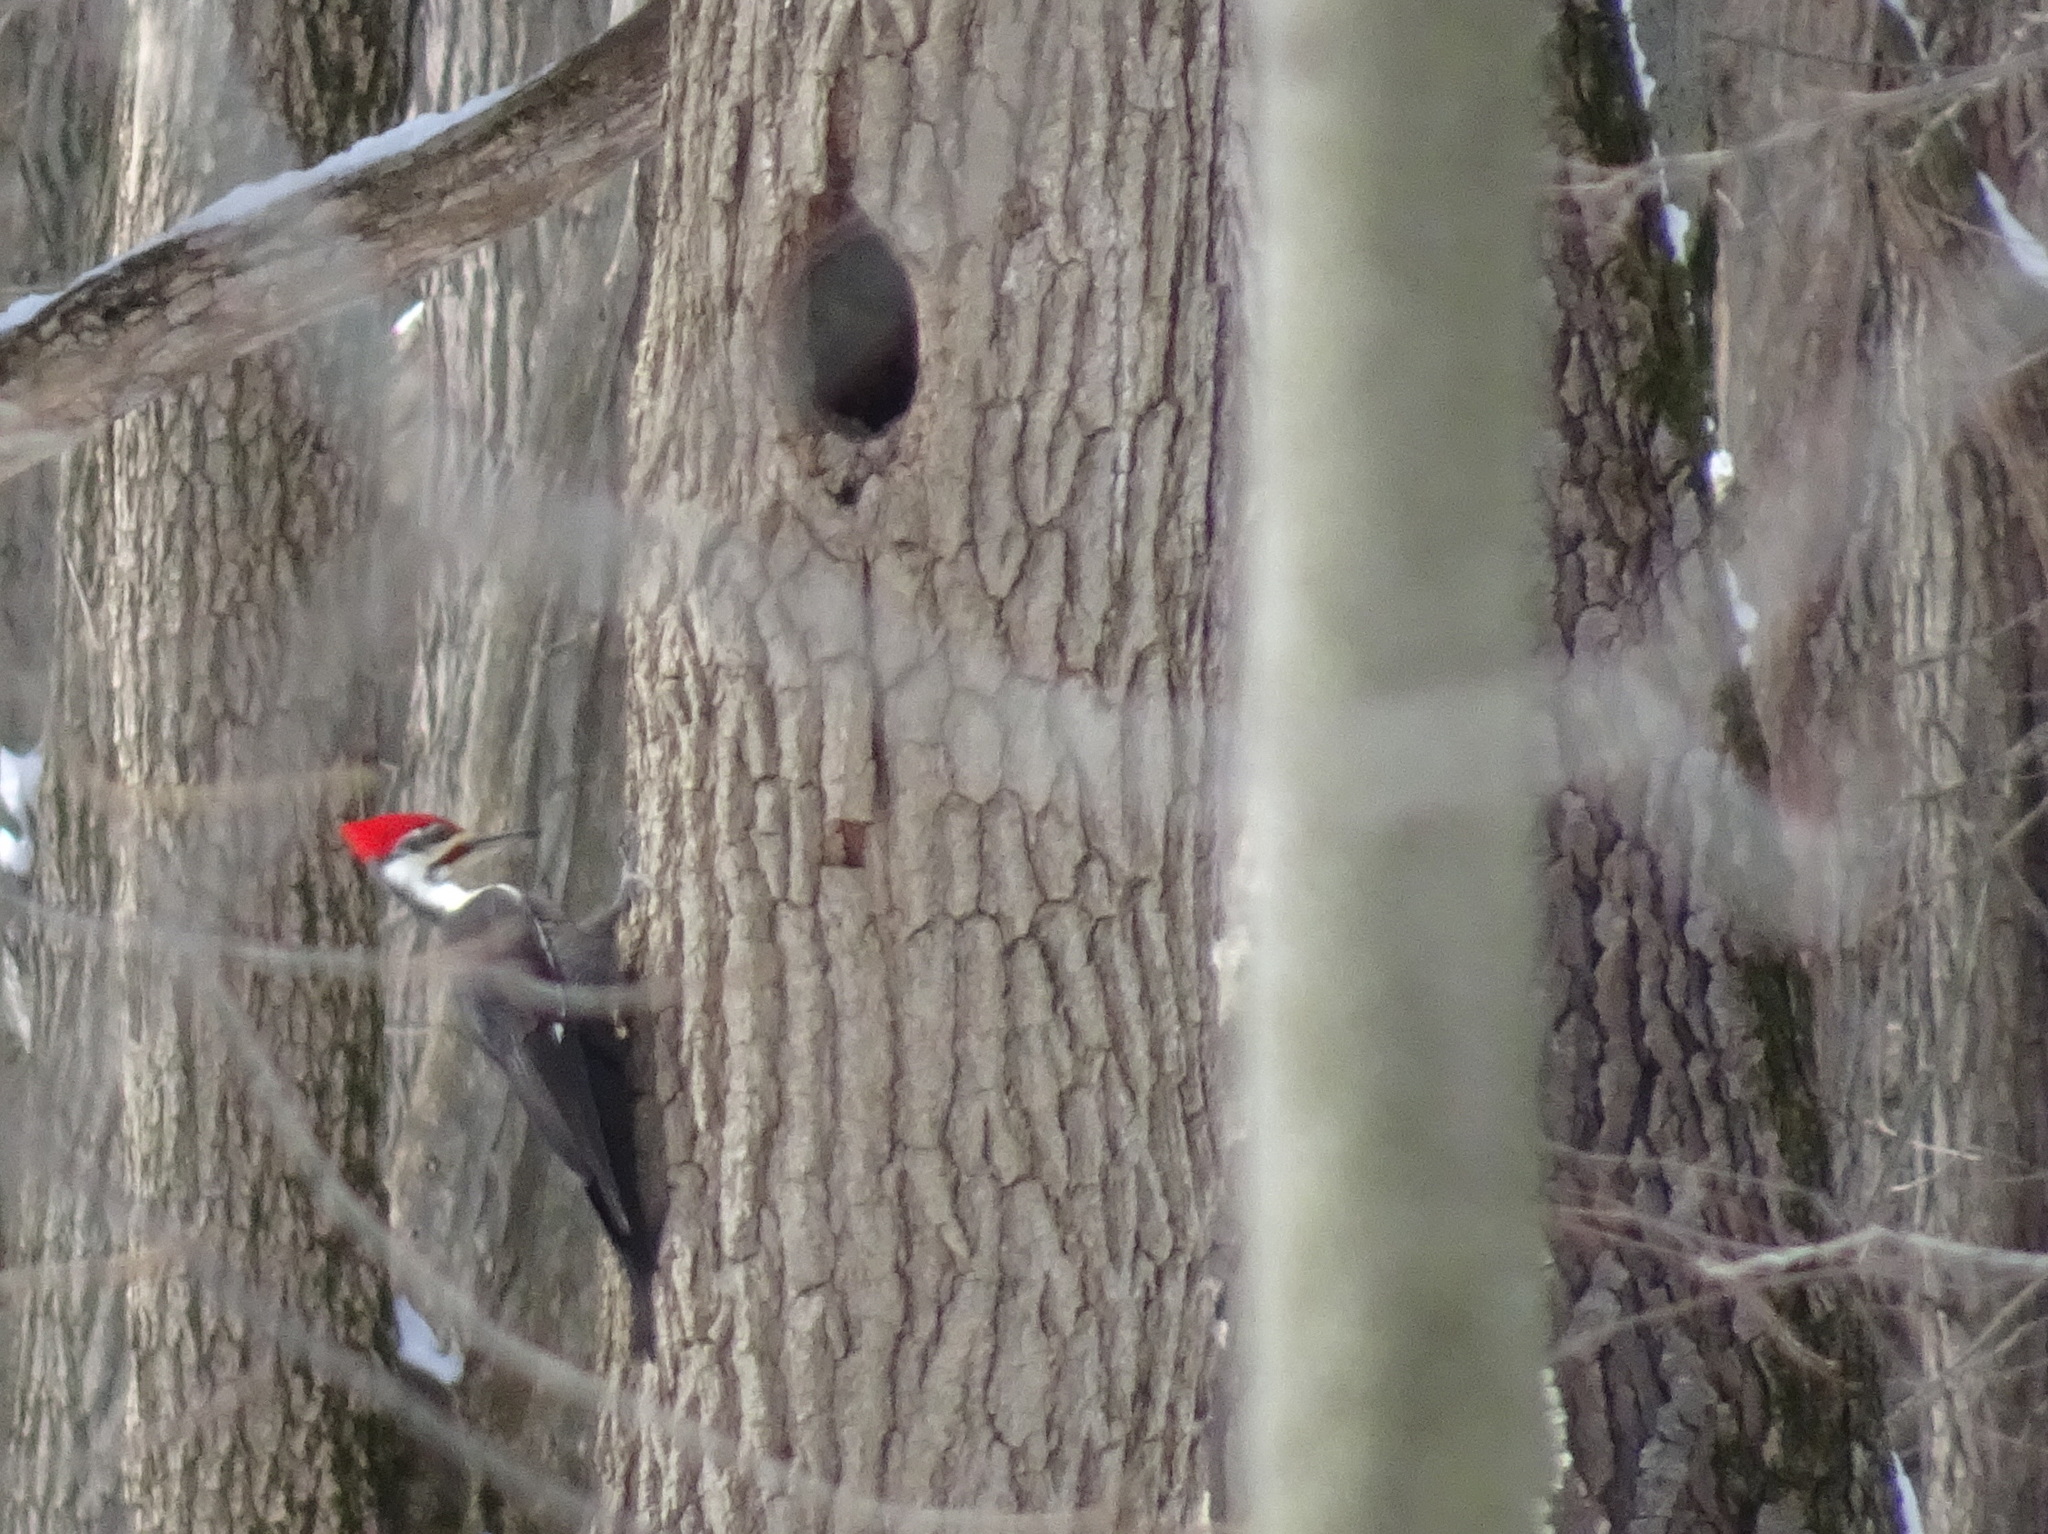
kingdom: Animalia
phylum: Chordata
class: Aves
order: Piciformes
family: Picidae
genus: Dryocopus
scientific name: Dryocopus pileatus
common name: Pileated woodpecker
